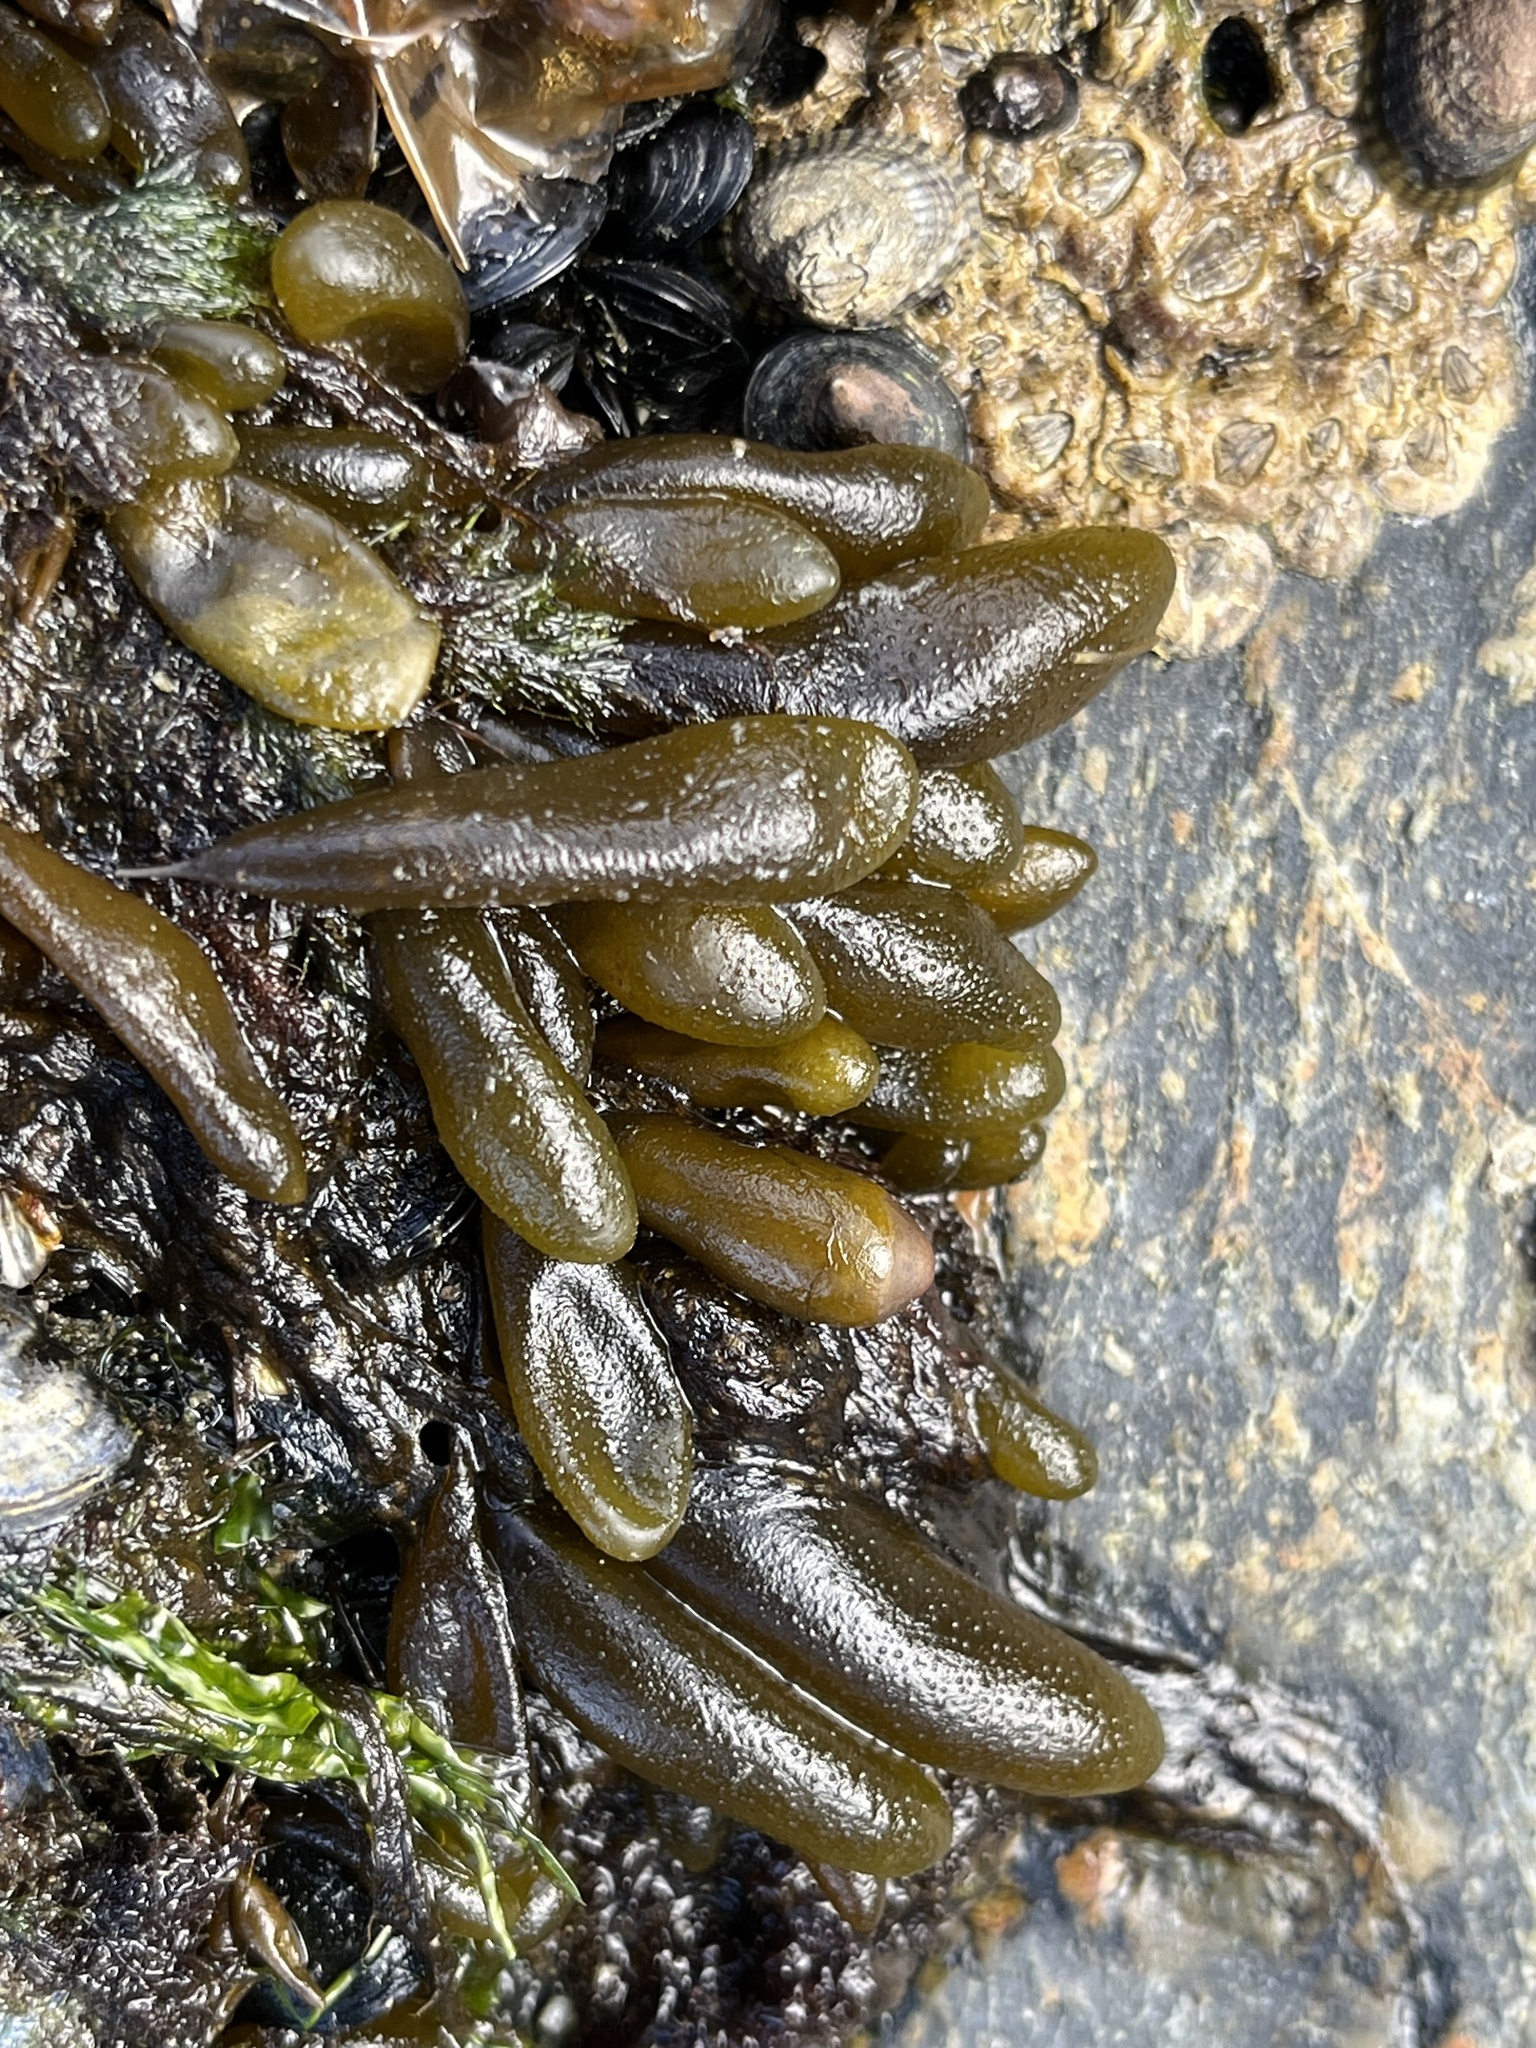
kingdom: Chromista
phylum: Ochrophyta
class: Phaeophyceae
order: Ectocarpales
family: Adenocystaceae
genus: Adenocystis
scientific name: Adenocystis utricularis
